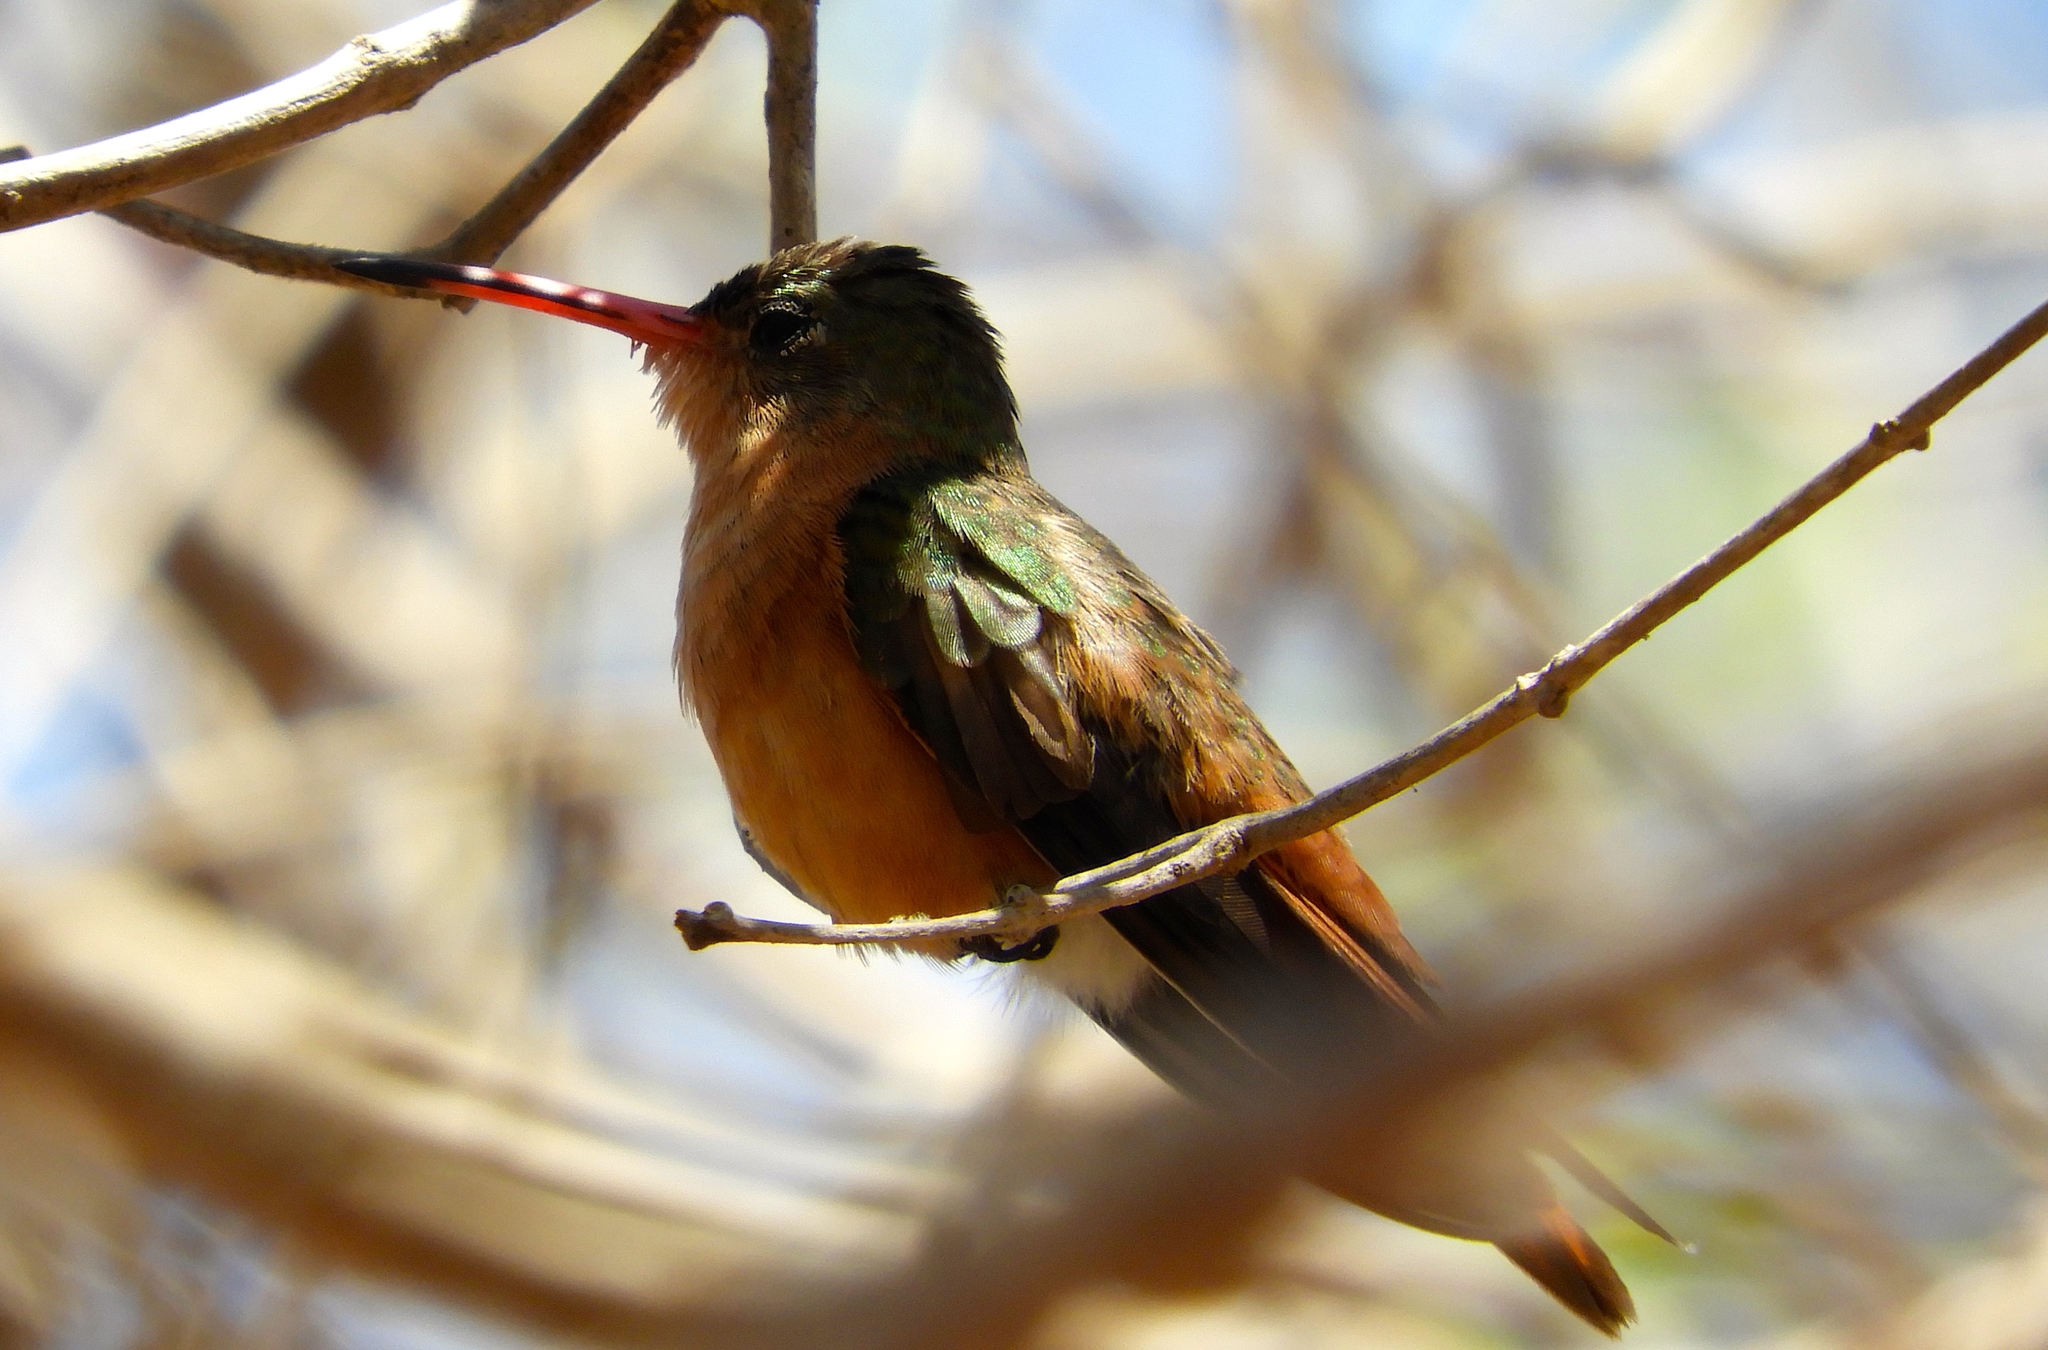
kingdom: Animalia
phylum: Chordata
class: Aves
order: Apodiformes
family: Trochilidae
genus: Amazilia
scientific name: Amazilia rutila
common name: Cinnamon hummingbird
